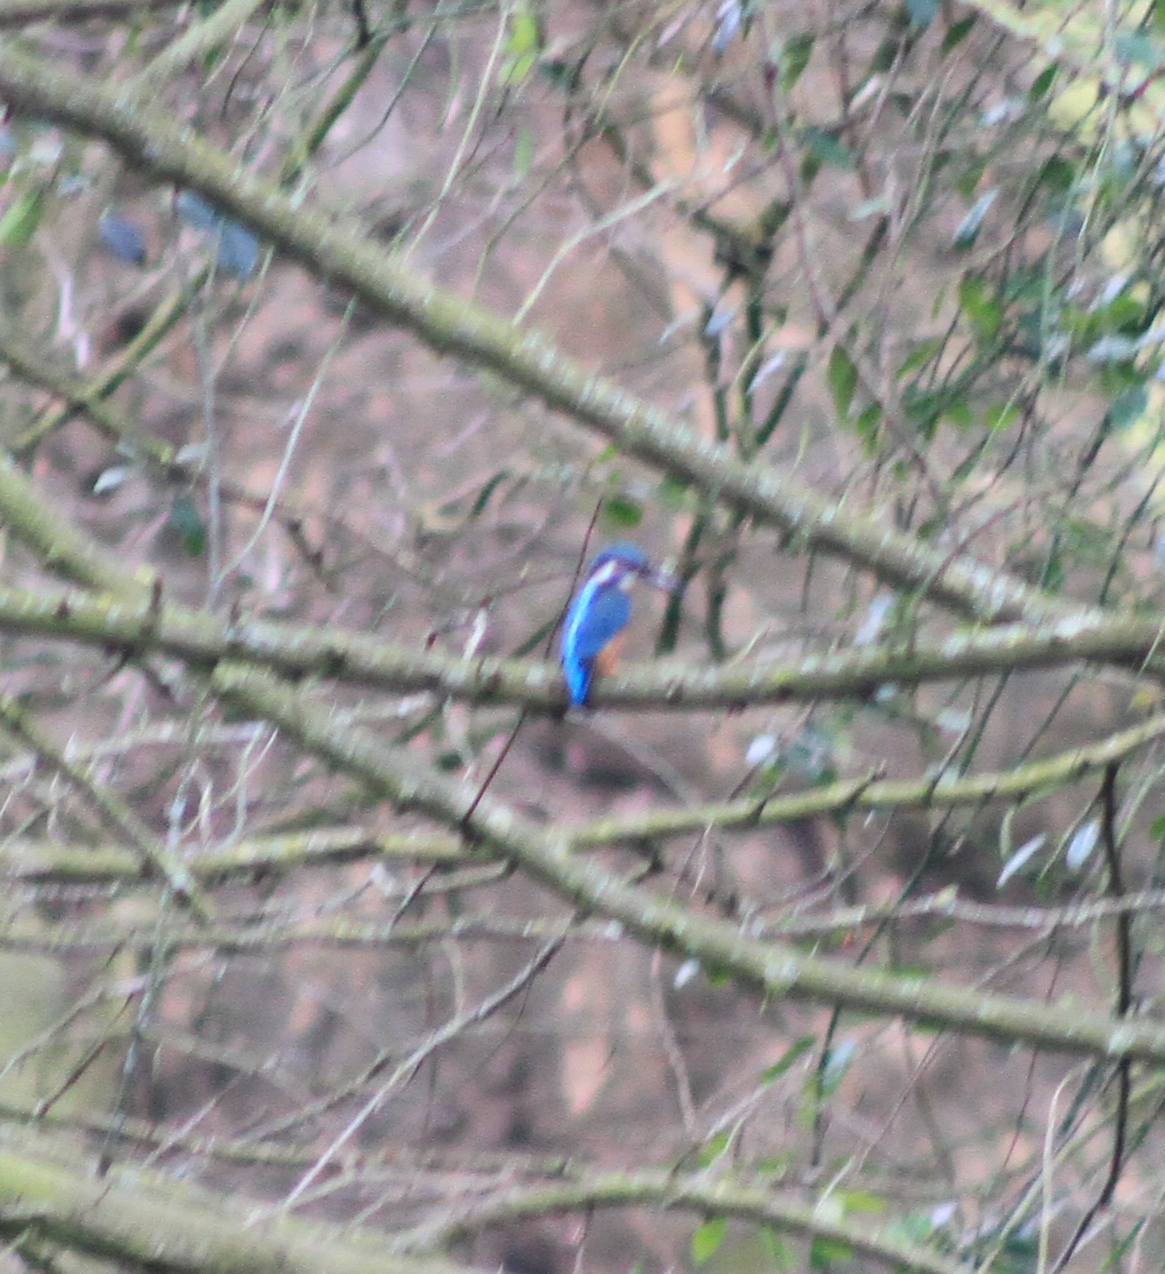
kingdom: Animalia
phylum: Chordata
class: Aves
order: Coraciiformes
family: Alcedinidae
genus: Alcedo
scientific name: Alcedo atthis
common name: Common kingfisher
